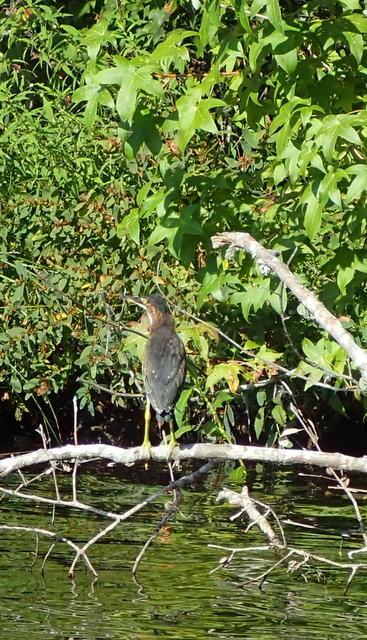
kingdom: Animalia
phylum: Chordata
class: Aves
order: Pelecaniformes
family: Ardeidae
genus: Butorides
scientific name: Butorides virescens
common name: Green heron
